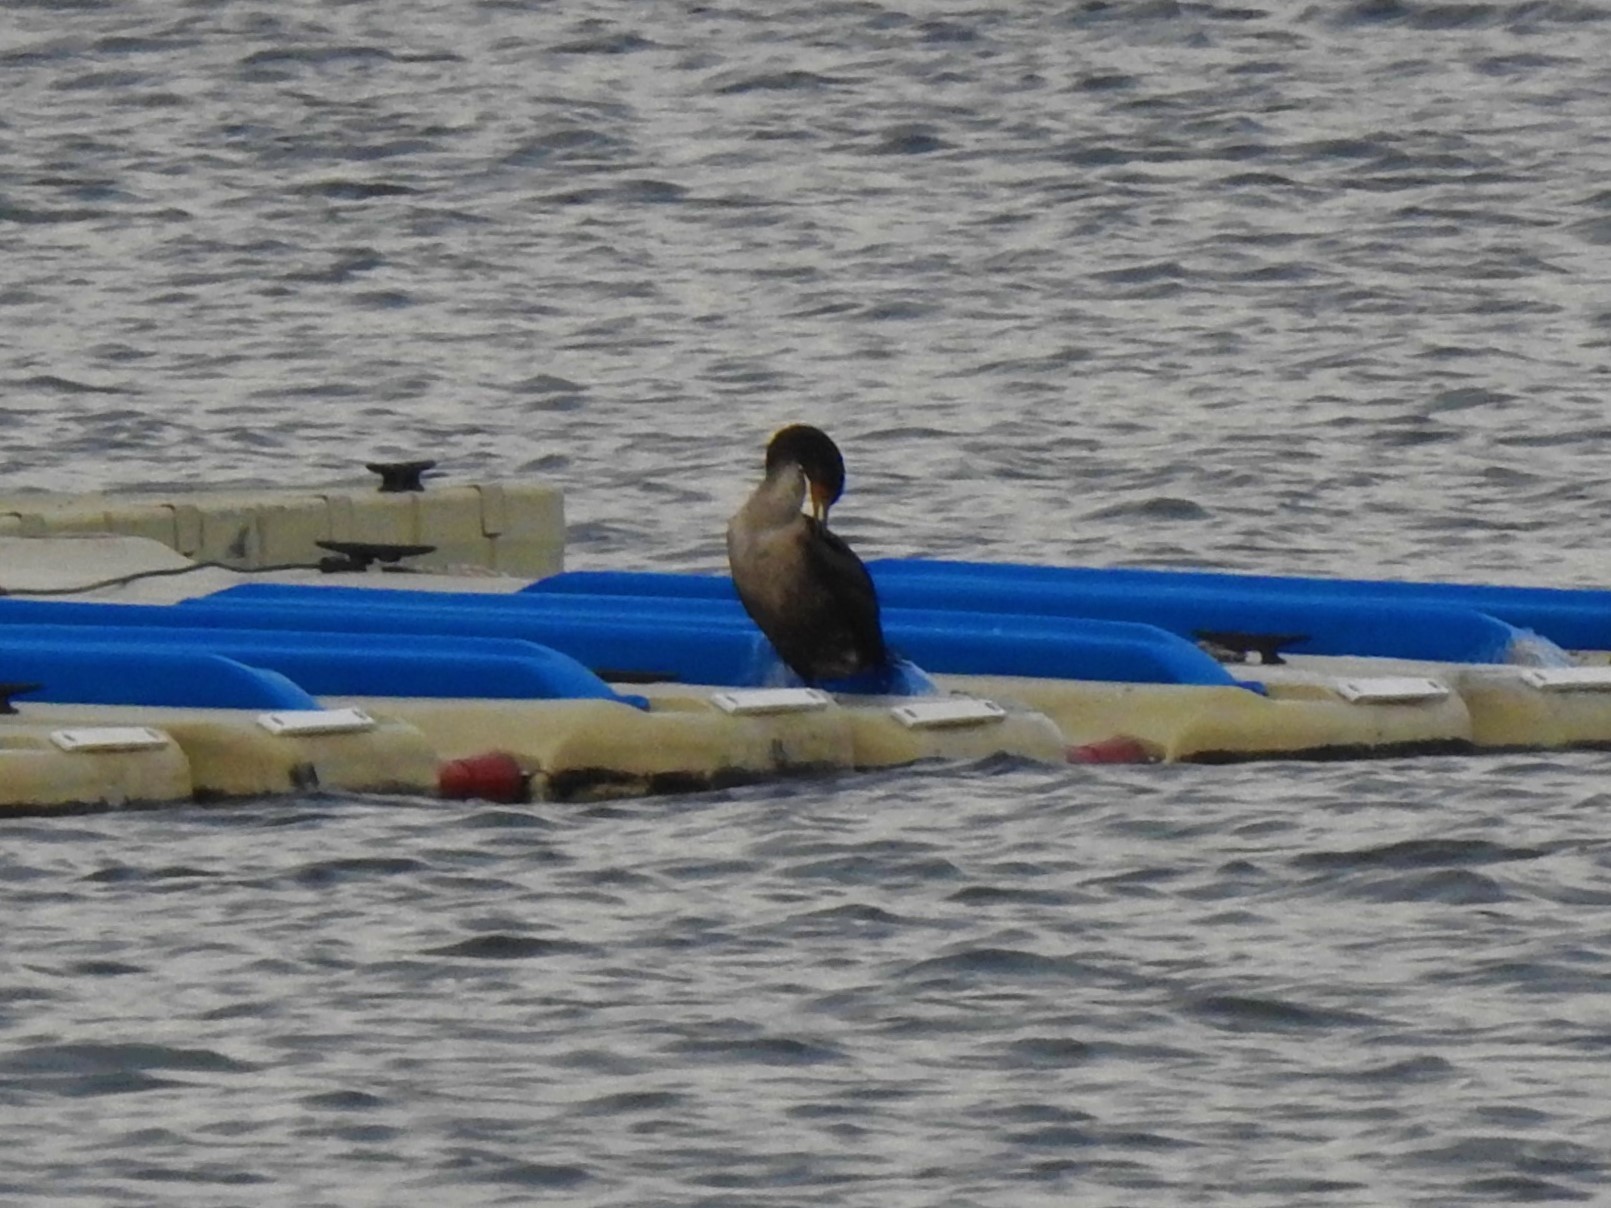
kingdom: Animalia
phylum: Chordata
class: Aves
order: Suliformes
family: Phalacrocoracidae
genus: Phalacrocorax
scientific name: Phalacrocorax auritus
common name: Double-crested cormorant
